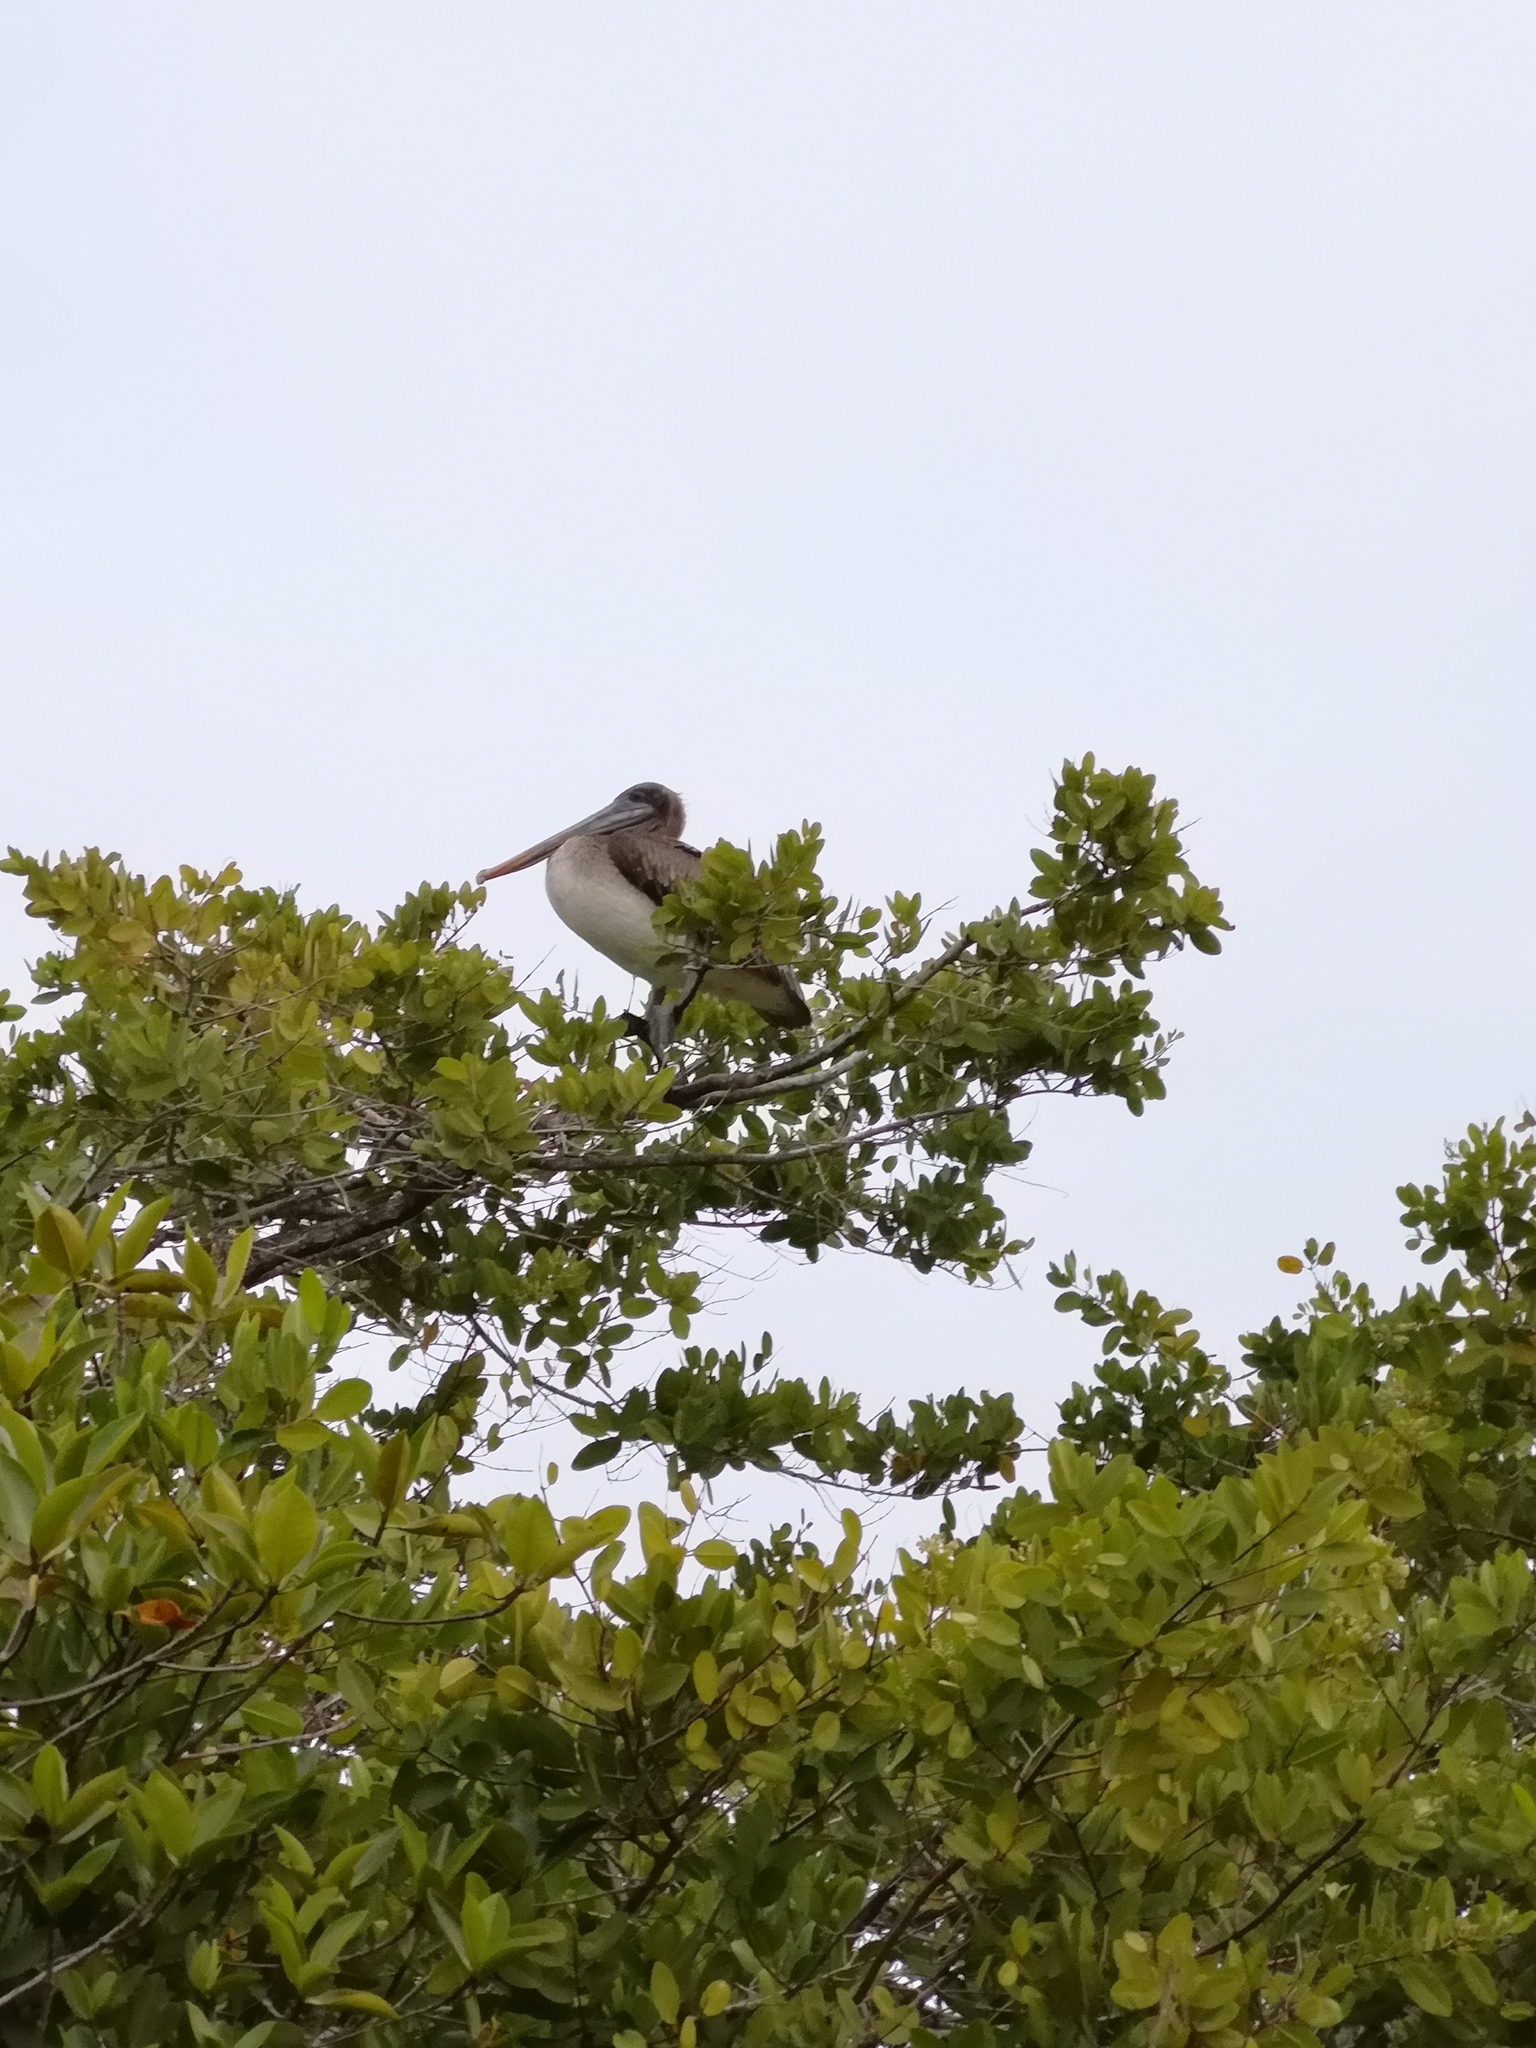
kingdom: Animalia
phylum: Chordata
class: Aves
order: Pelecaniformes
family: Pelecanidae
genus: Pelecanus
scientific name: Pelecanus occidentalis
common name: Brown pelican
